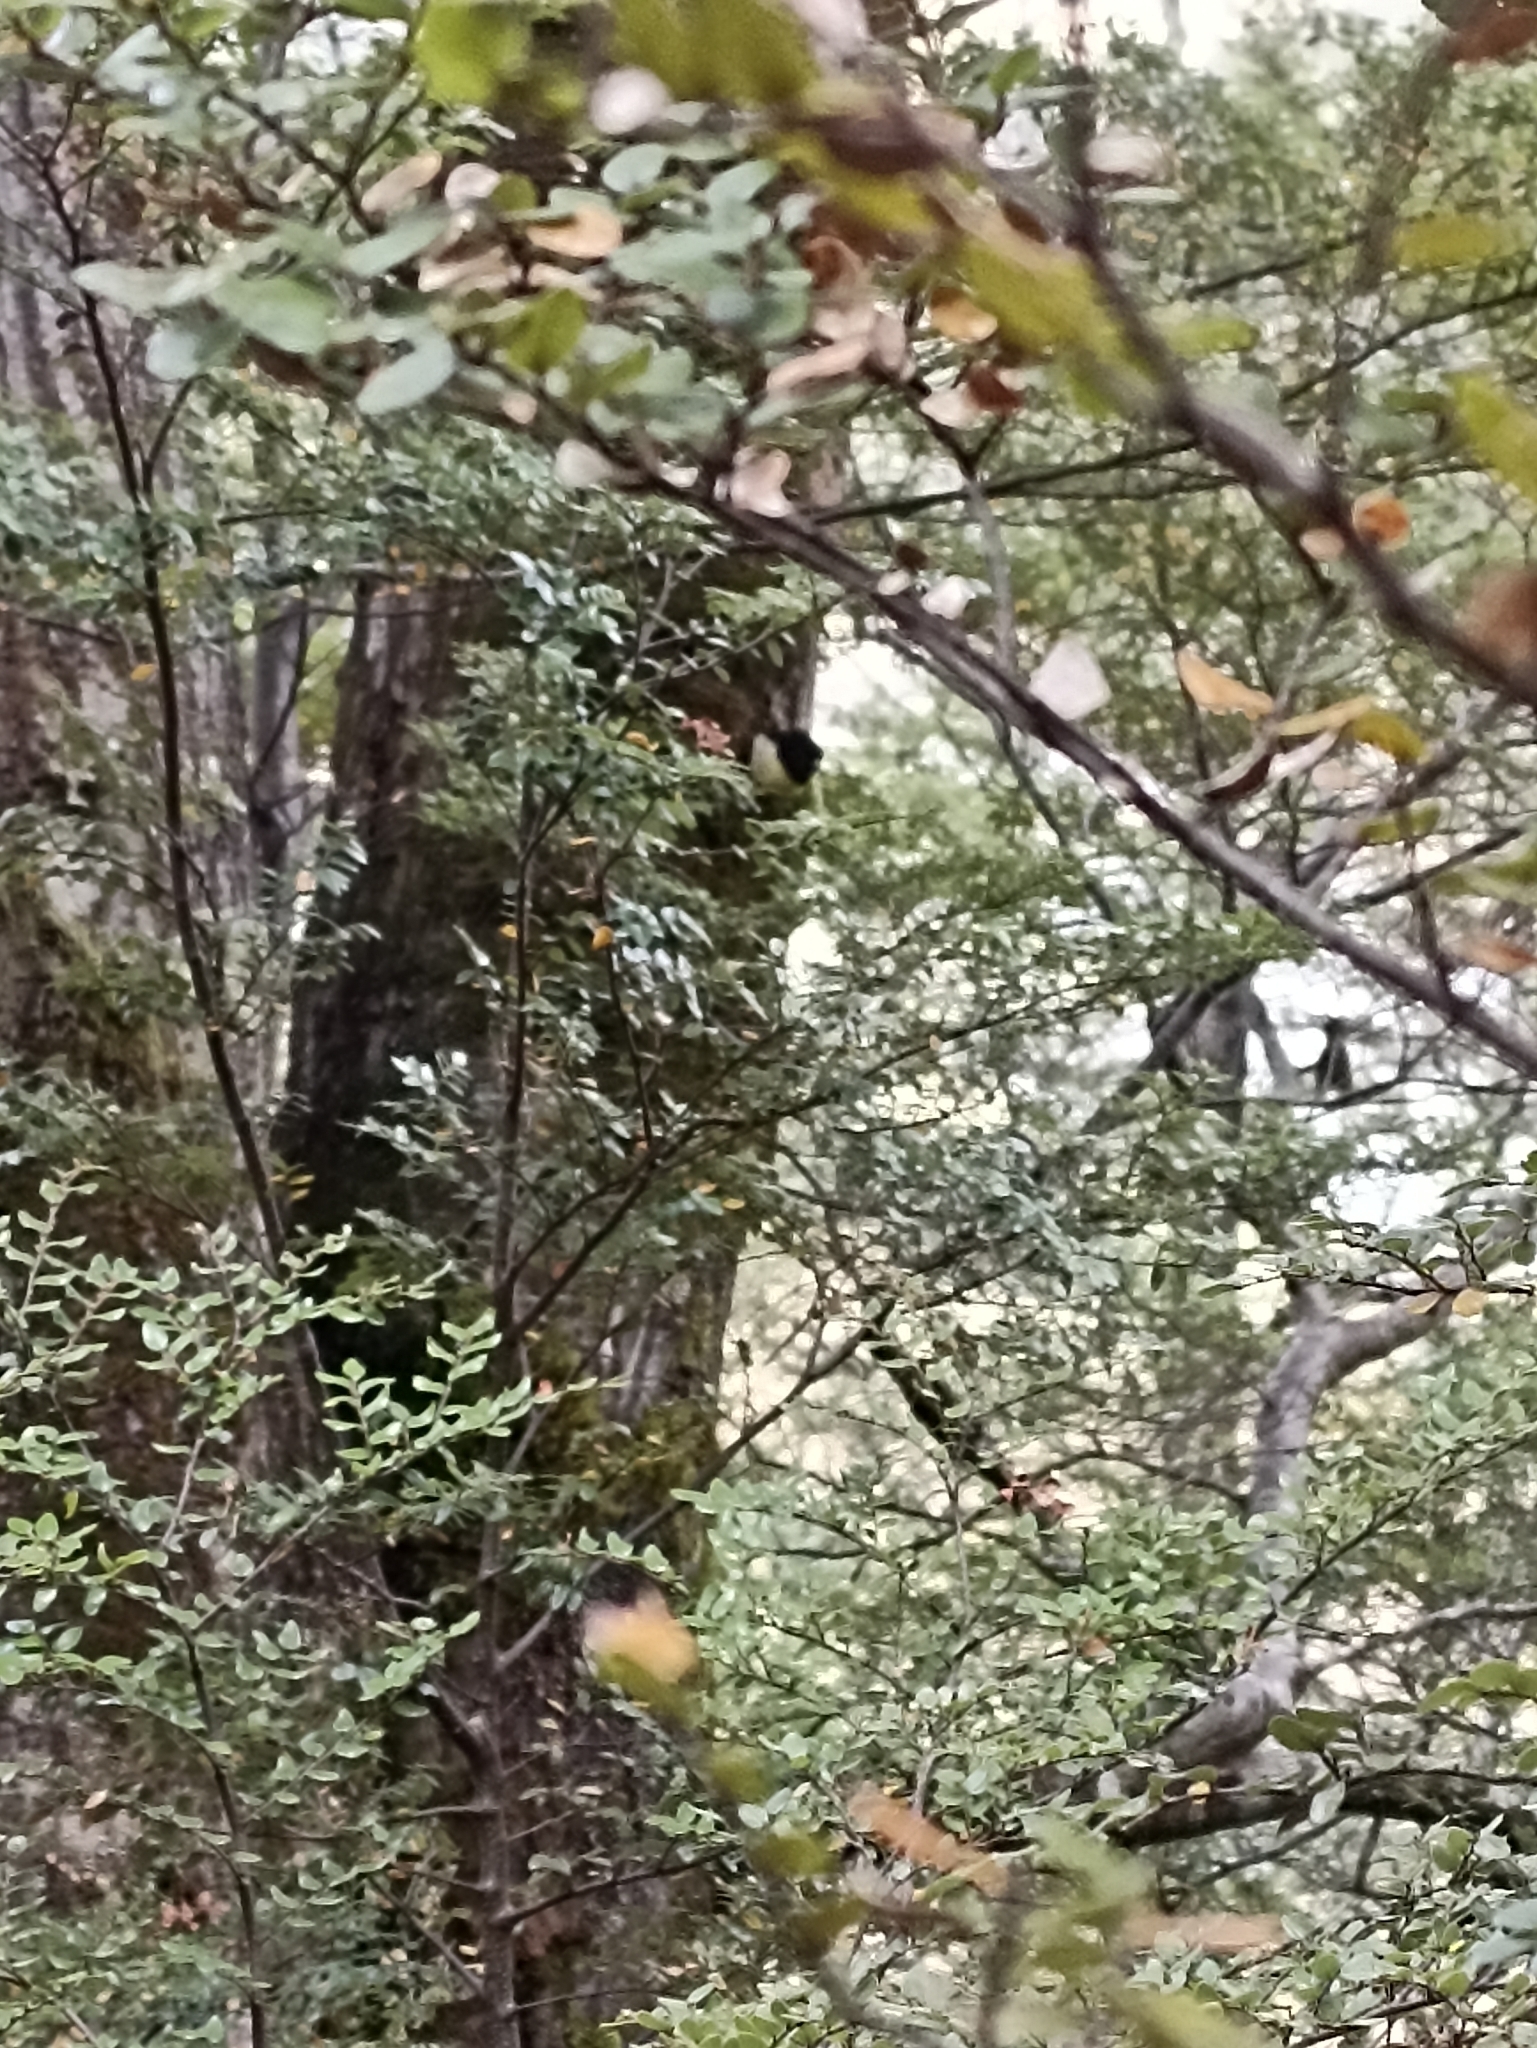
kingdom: Animalia
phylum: Chordata
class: Aves
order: Passeriformes
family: Petroicidae
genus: Petroica
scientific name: Petroica macrocephala
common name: Tomtit
